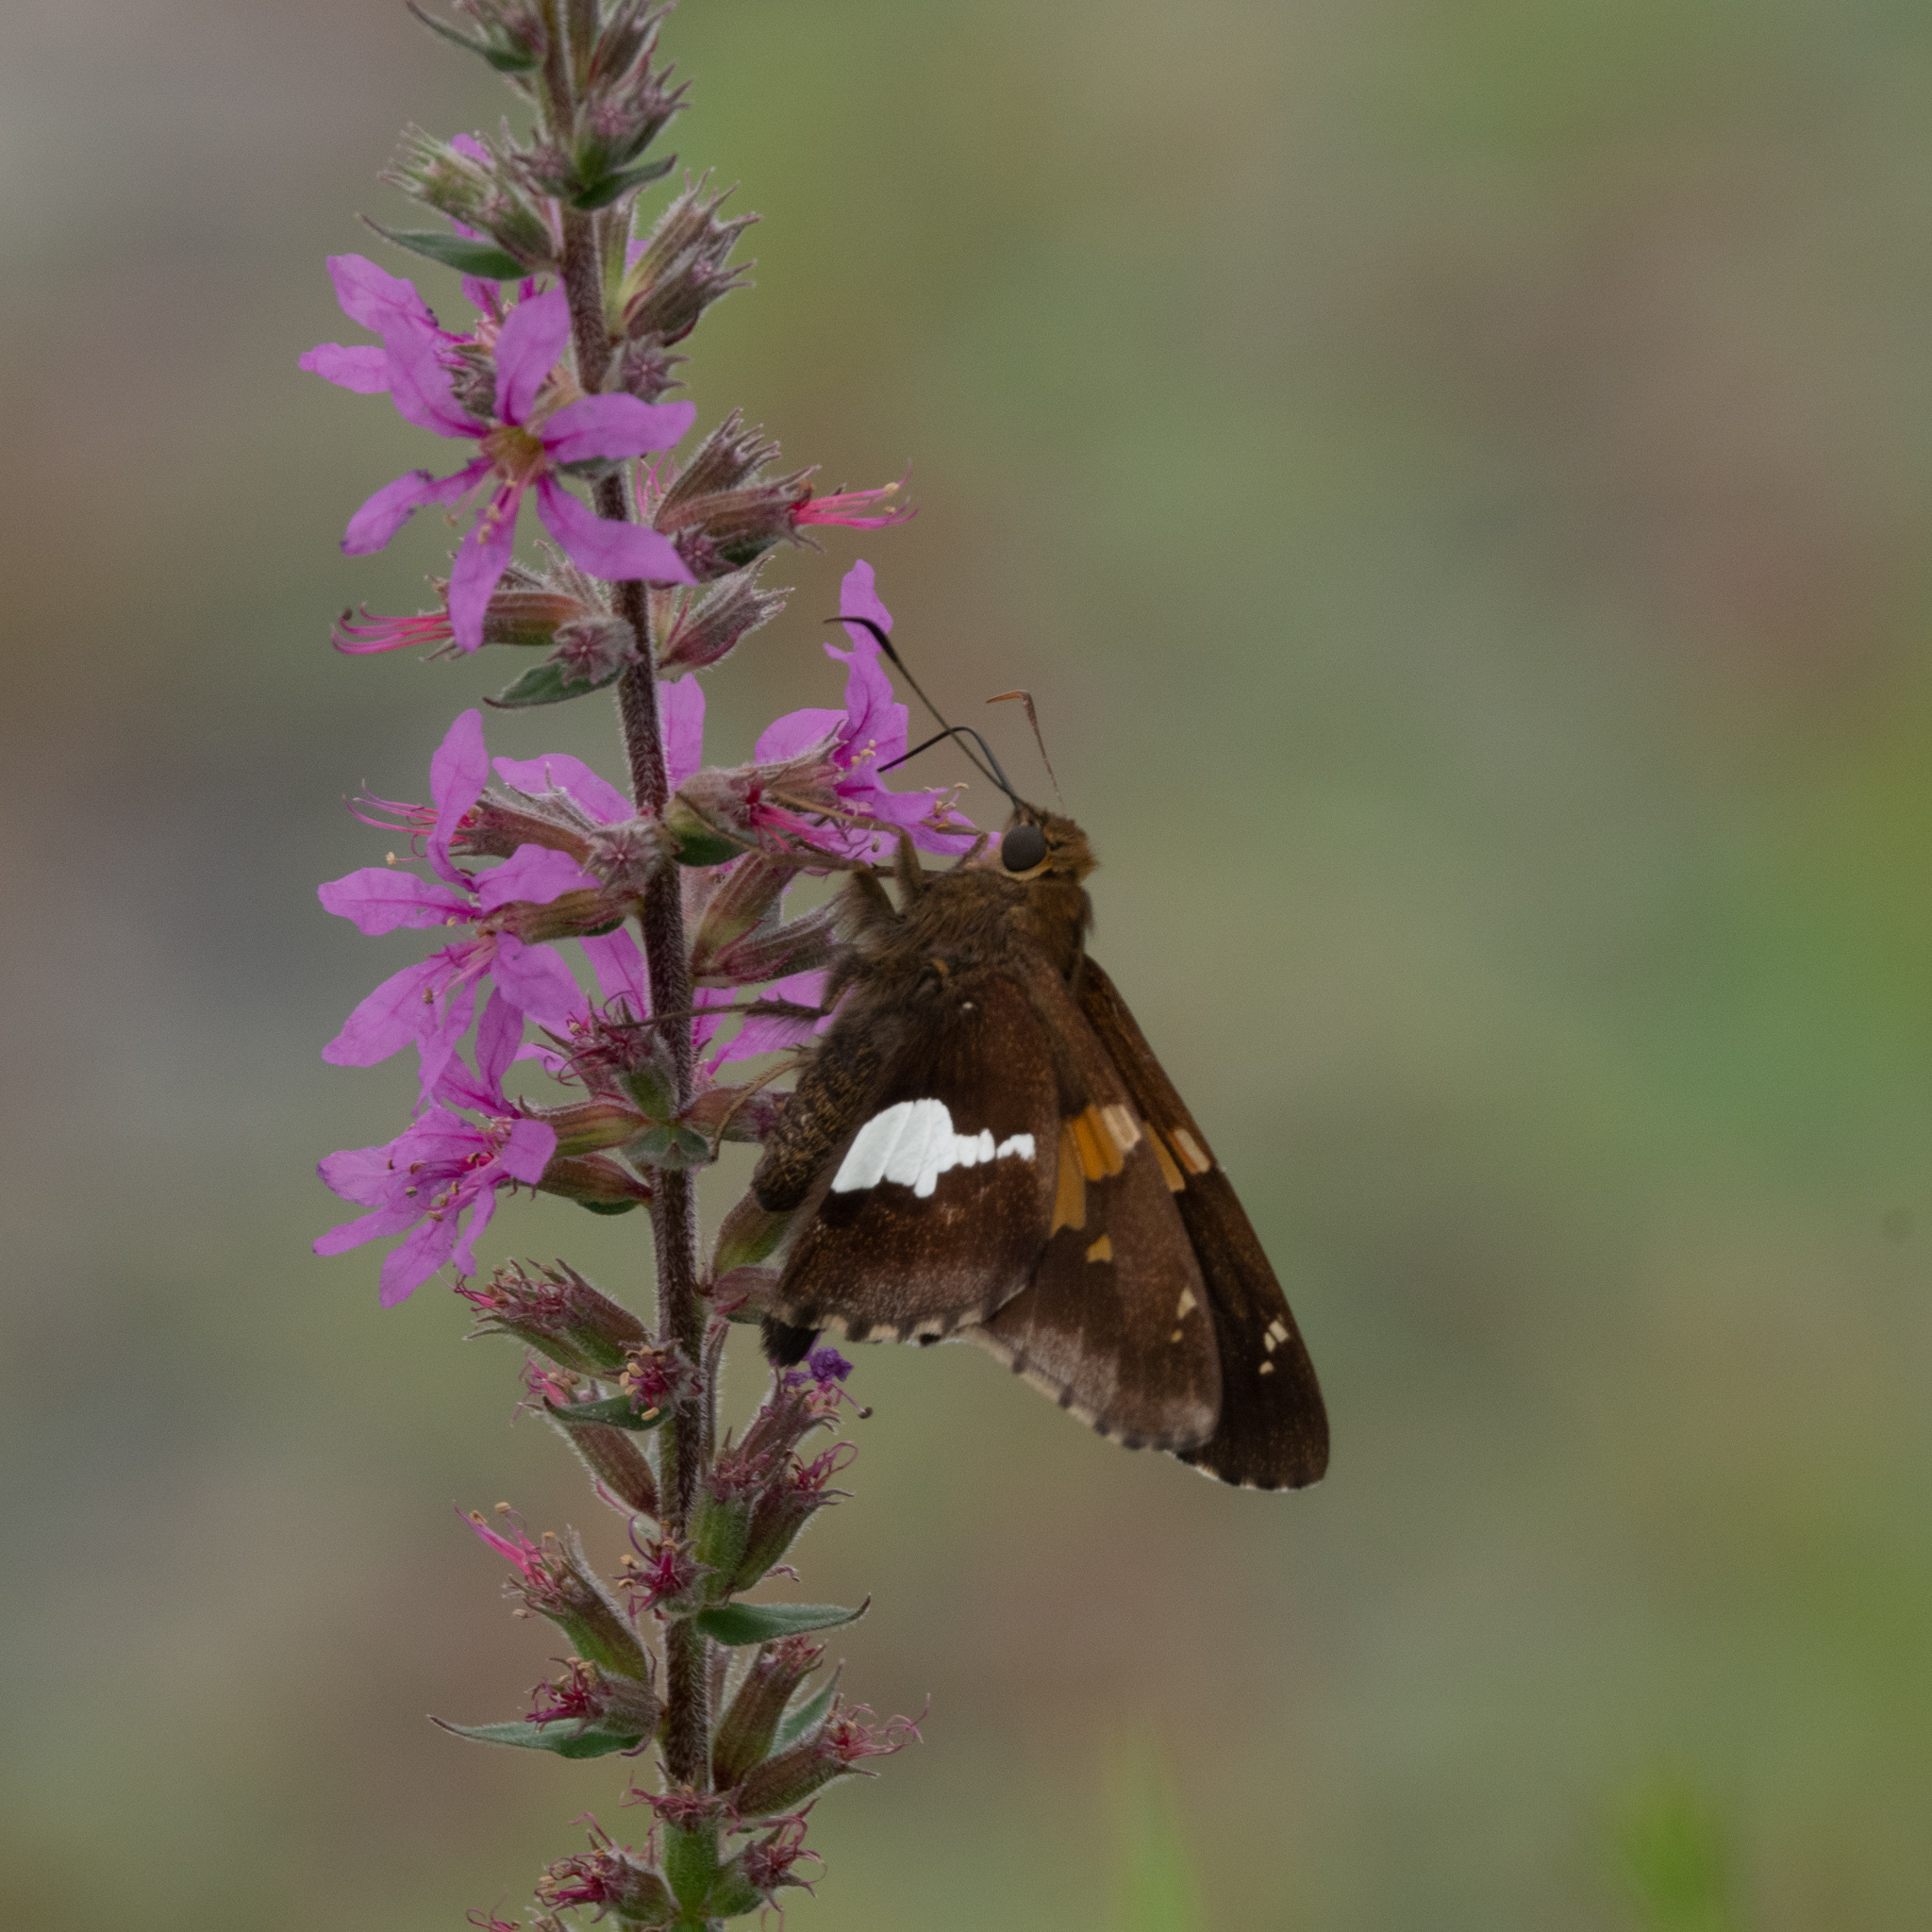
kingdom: Animalia
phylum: Arthropoda
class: Insecta
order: Lepidoptera
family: Hesperiidae
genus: Epargyreus
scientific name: Epargyreus clarus
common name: Silver-spotted skipper
